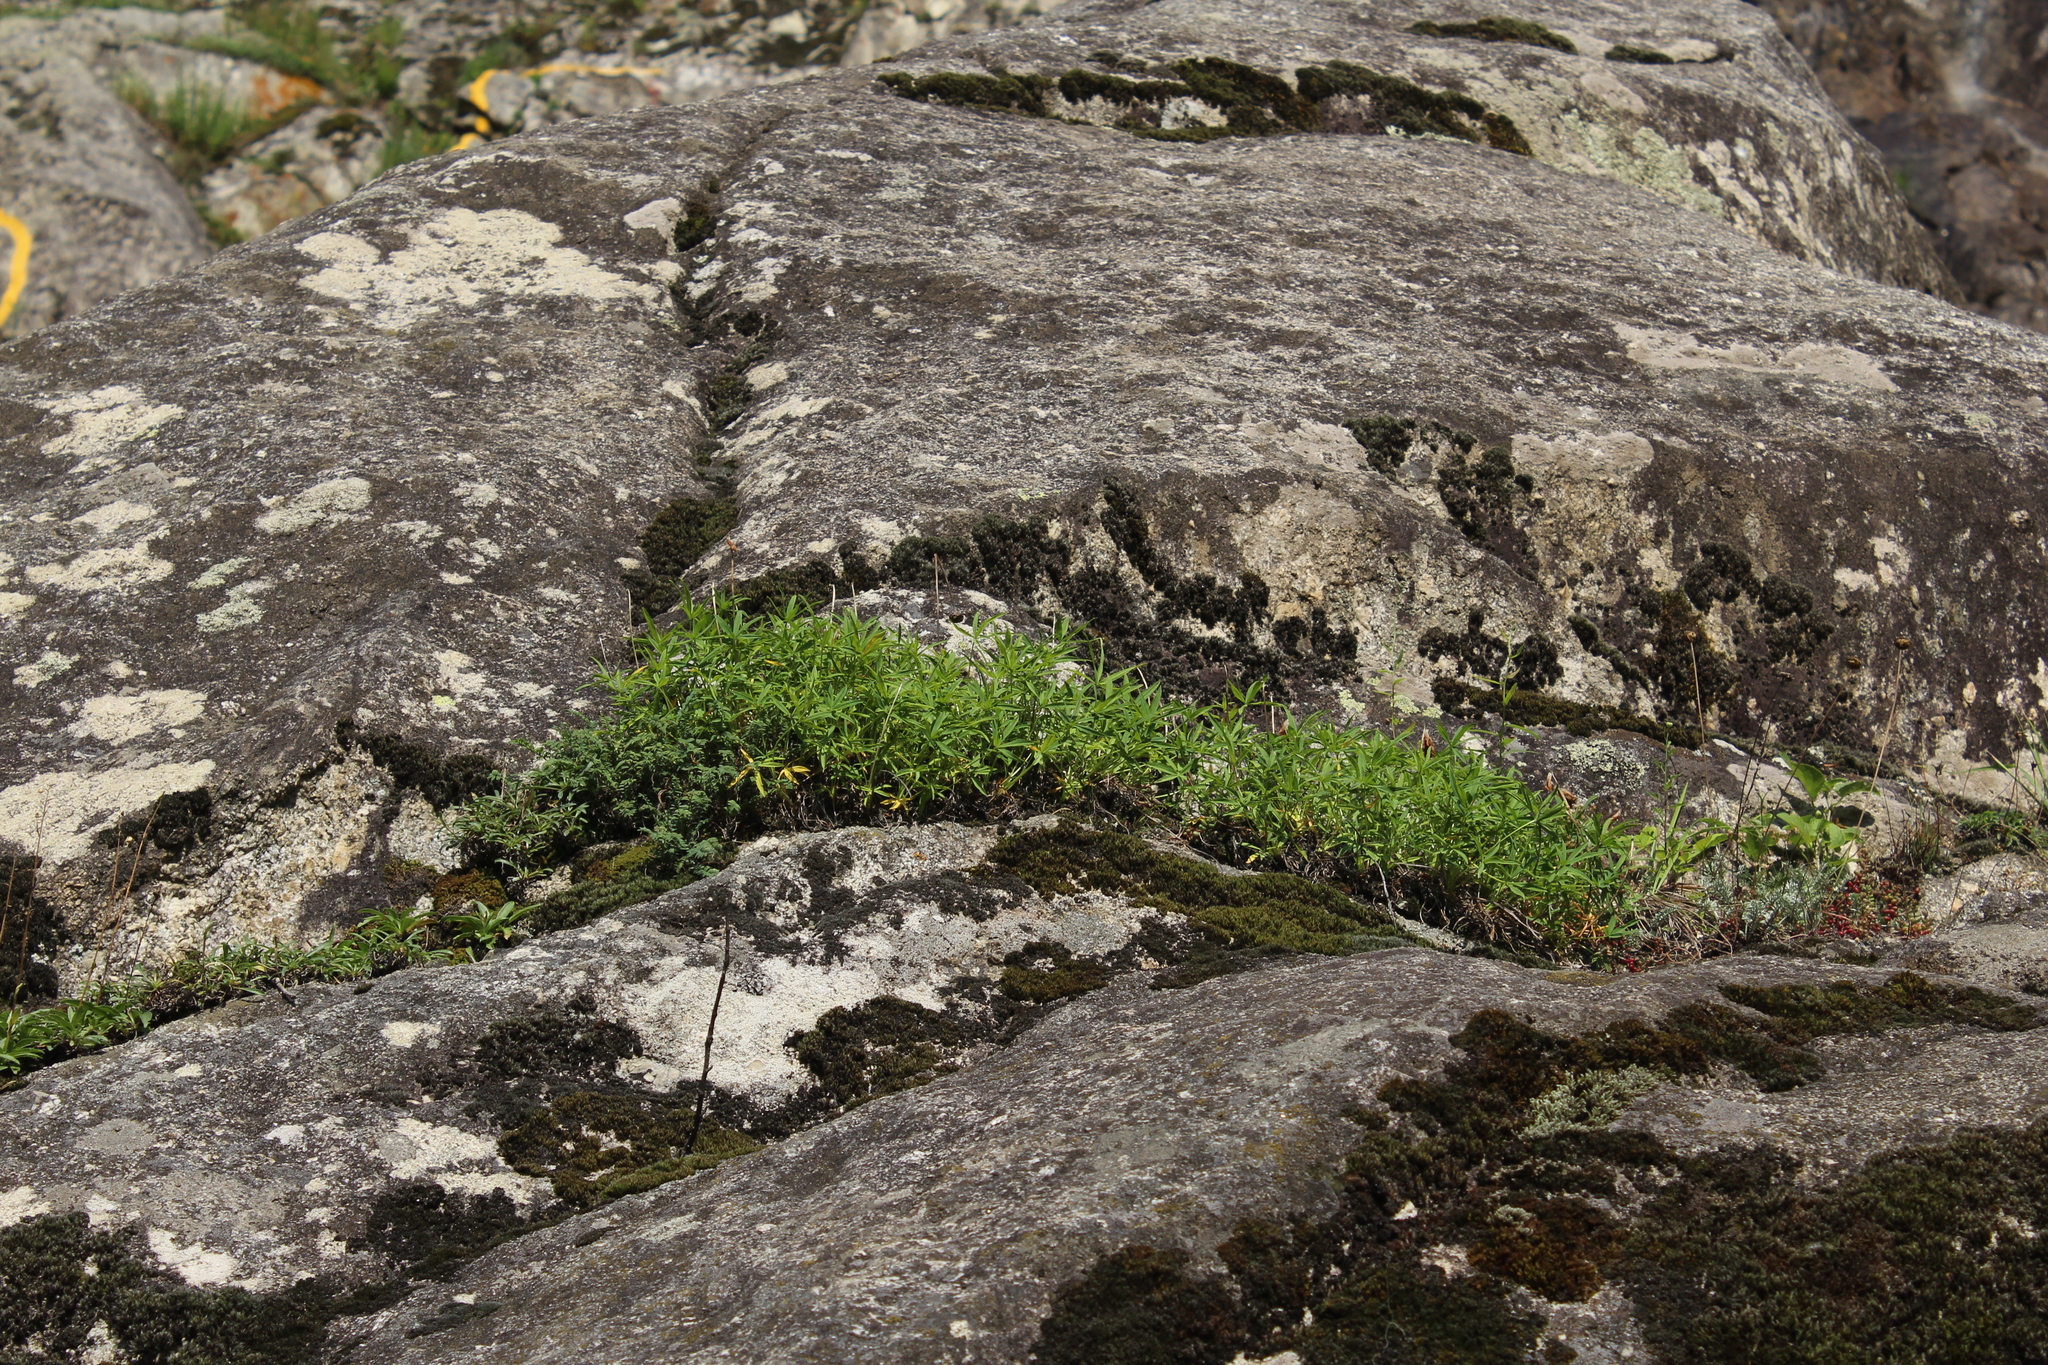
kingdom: Plantae
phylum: Tracheophyta
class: Magnoliopsida
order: Fabales
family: Fabaceae
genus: Trifolium
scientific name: Trifolium polyphyllum
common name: Many-leaf clover
